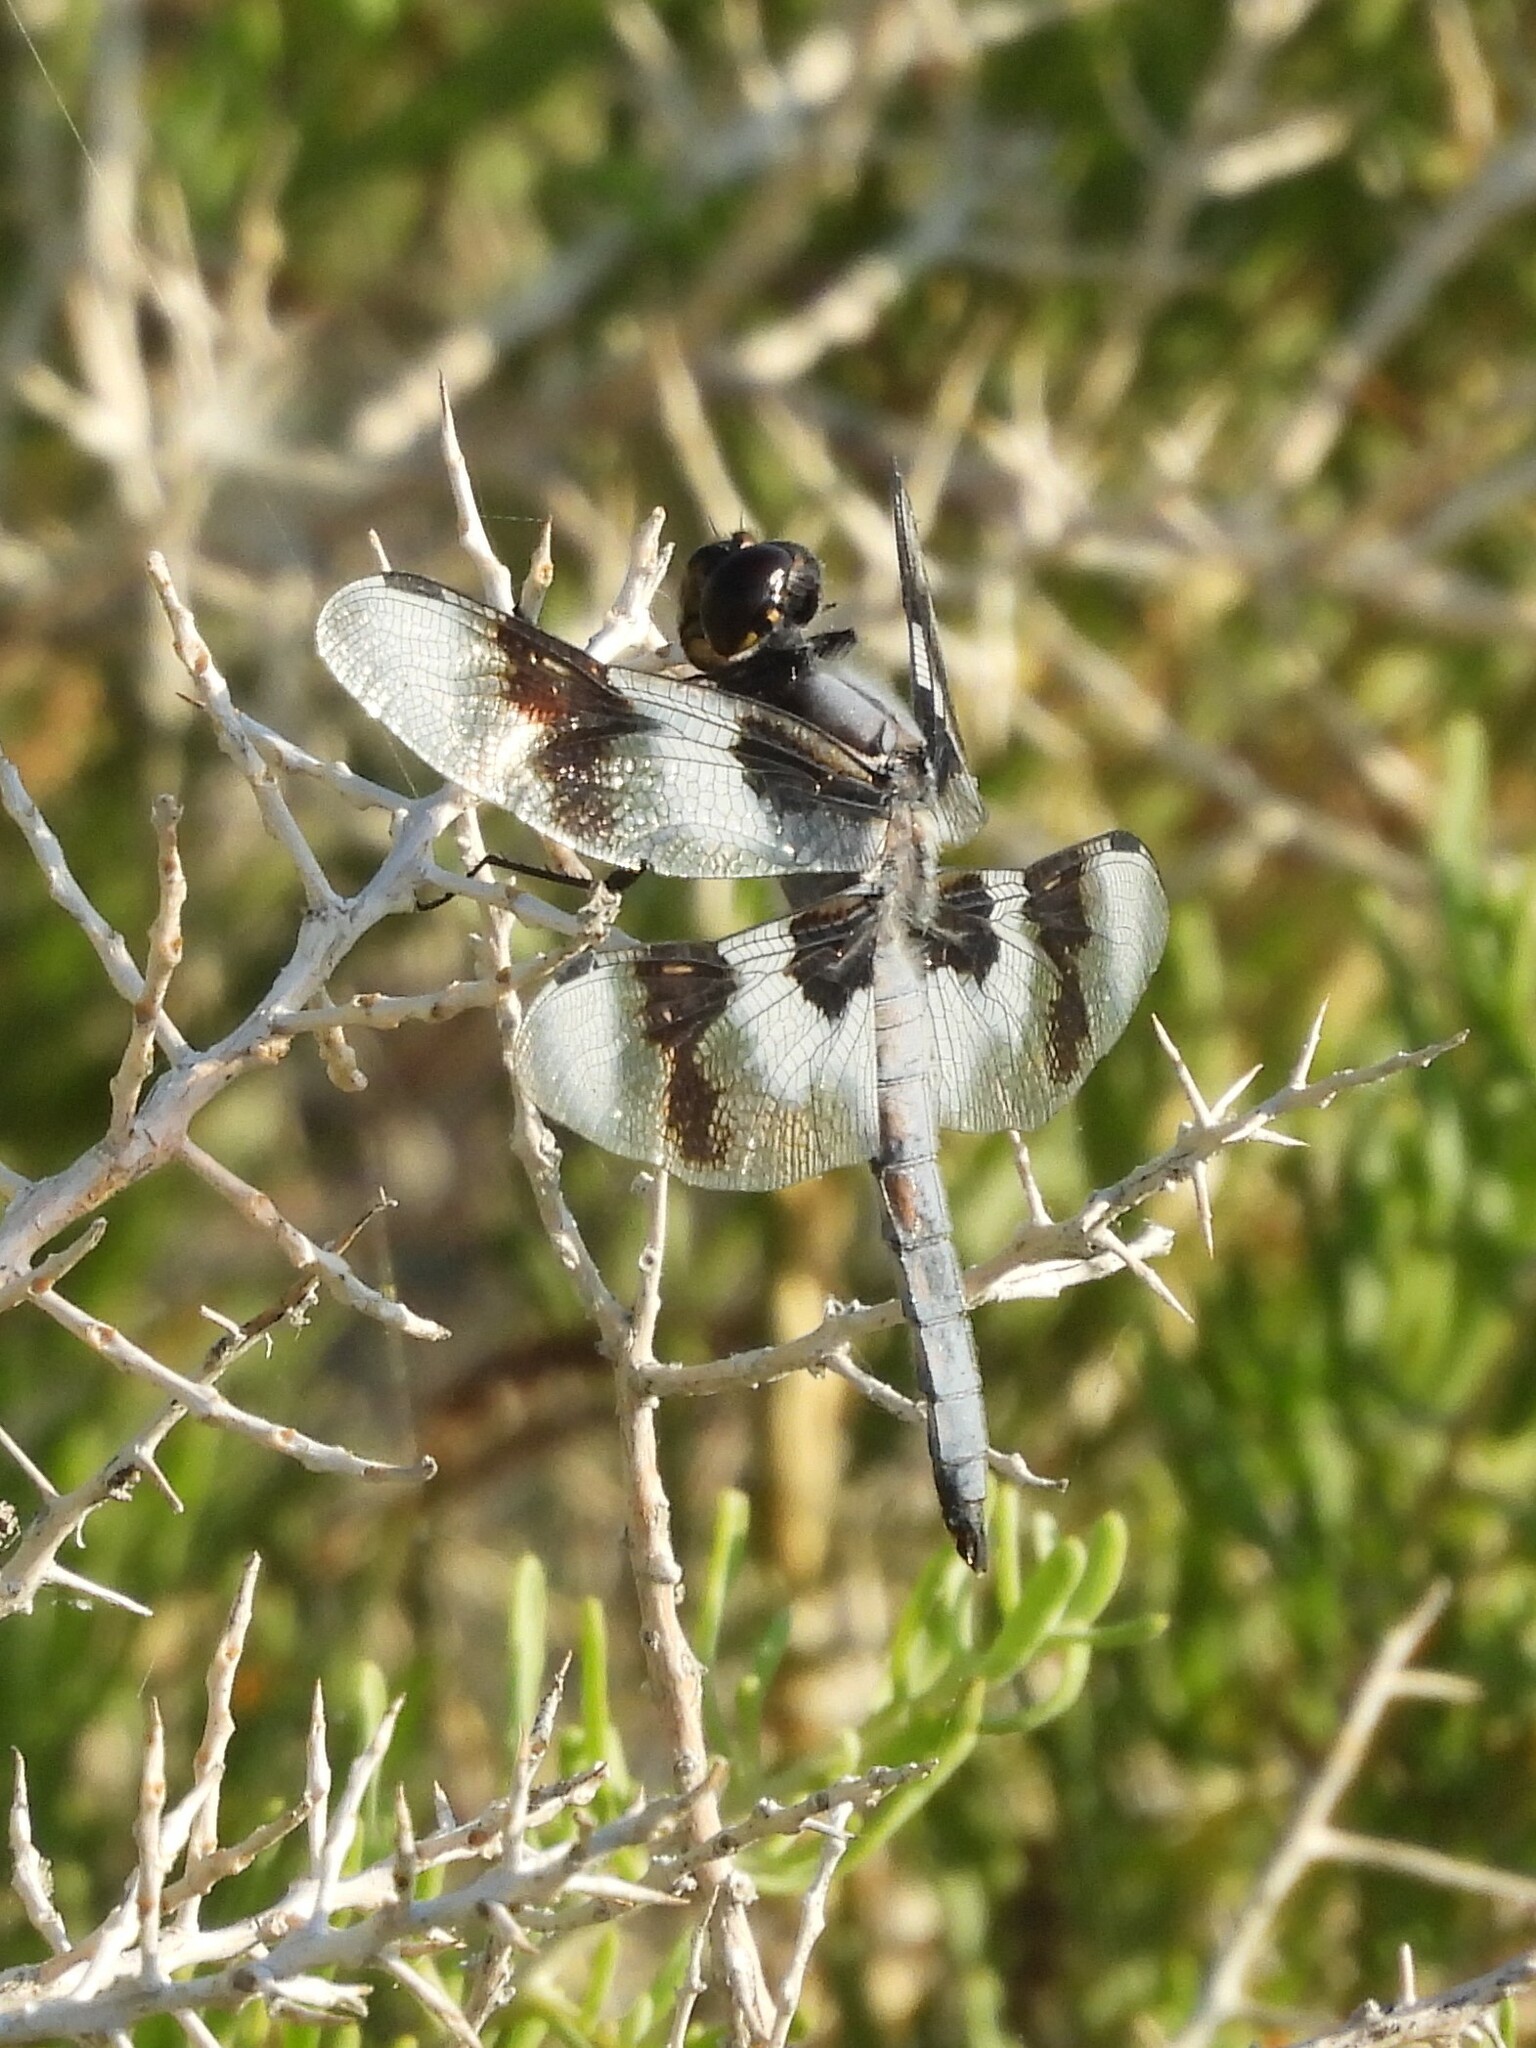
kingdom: Animalia
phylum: Arthropoda
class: Insecta
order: Odonata
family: Libellulidae
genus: Libellula
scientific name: Libellula forensis
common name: Eight-spotted skimmer
